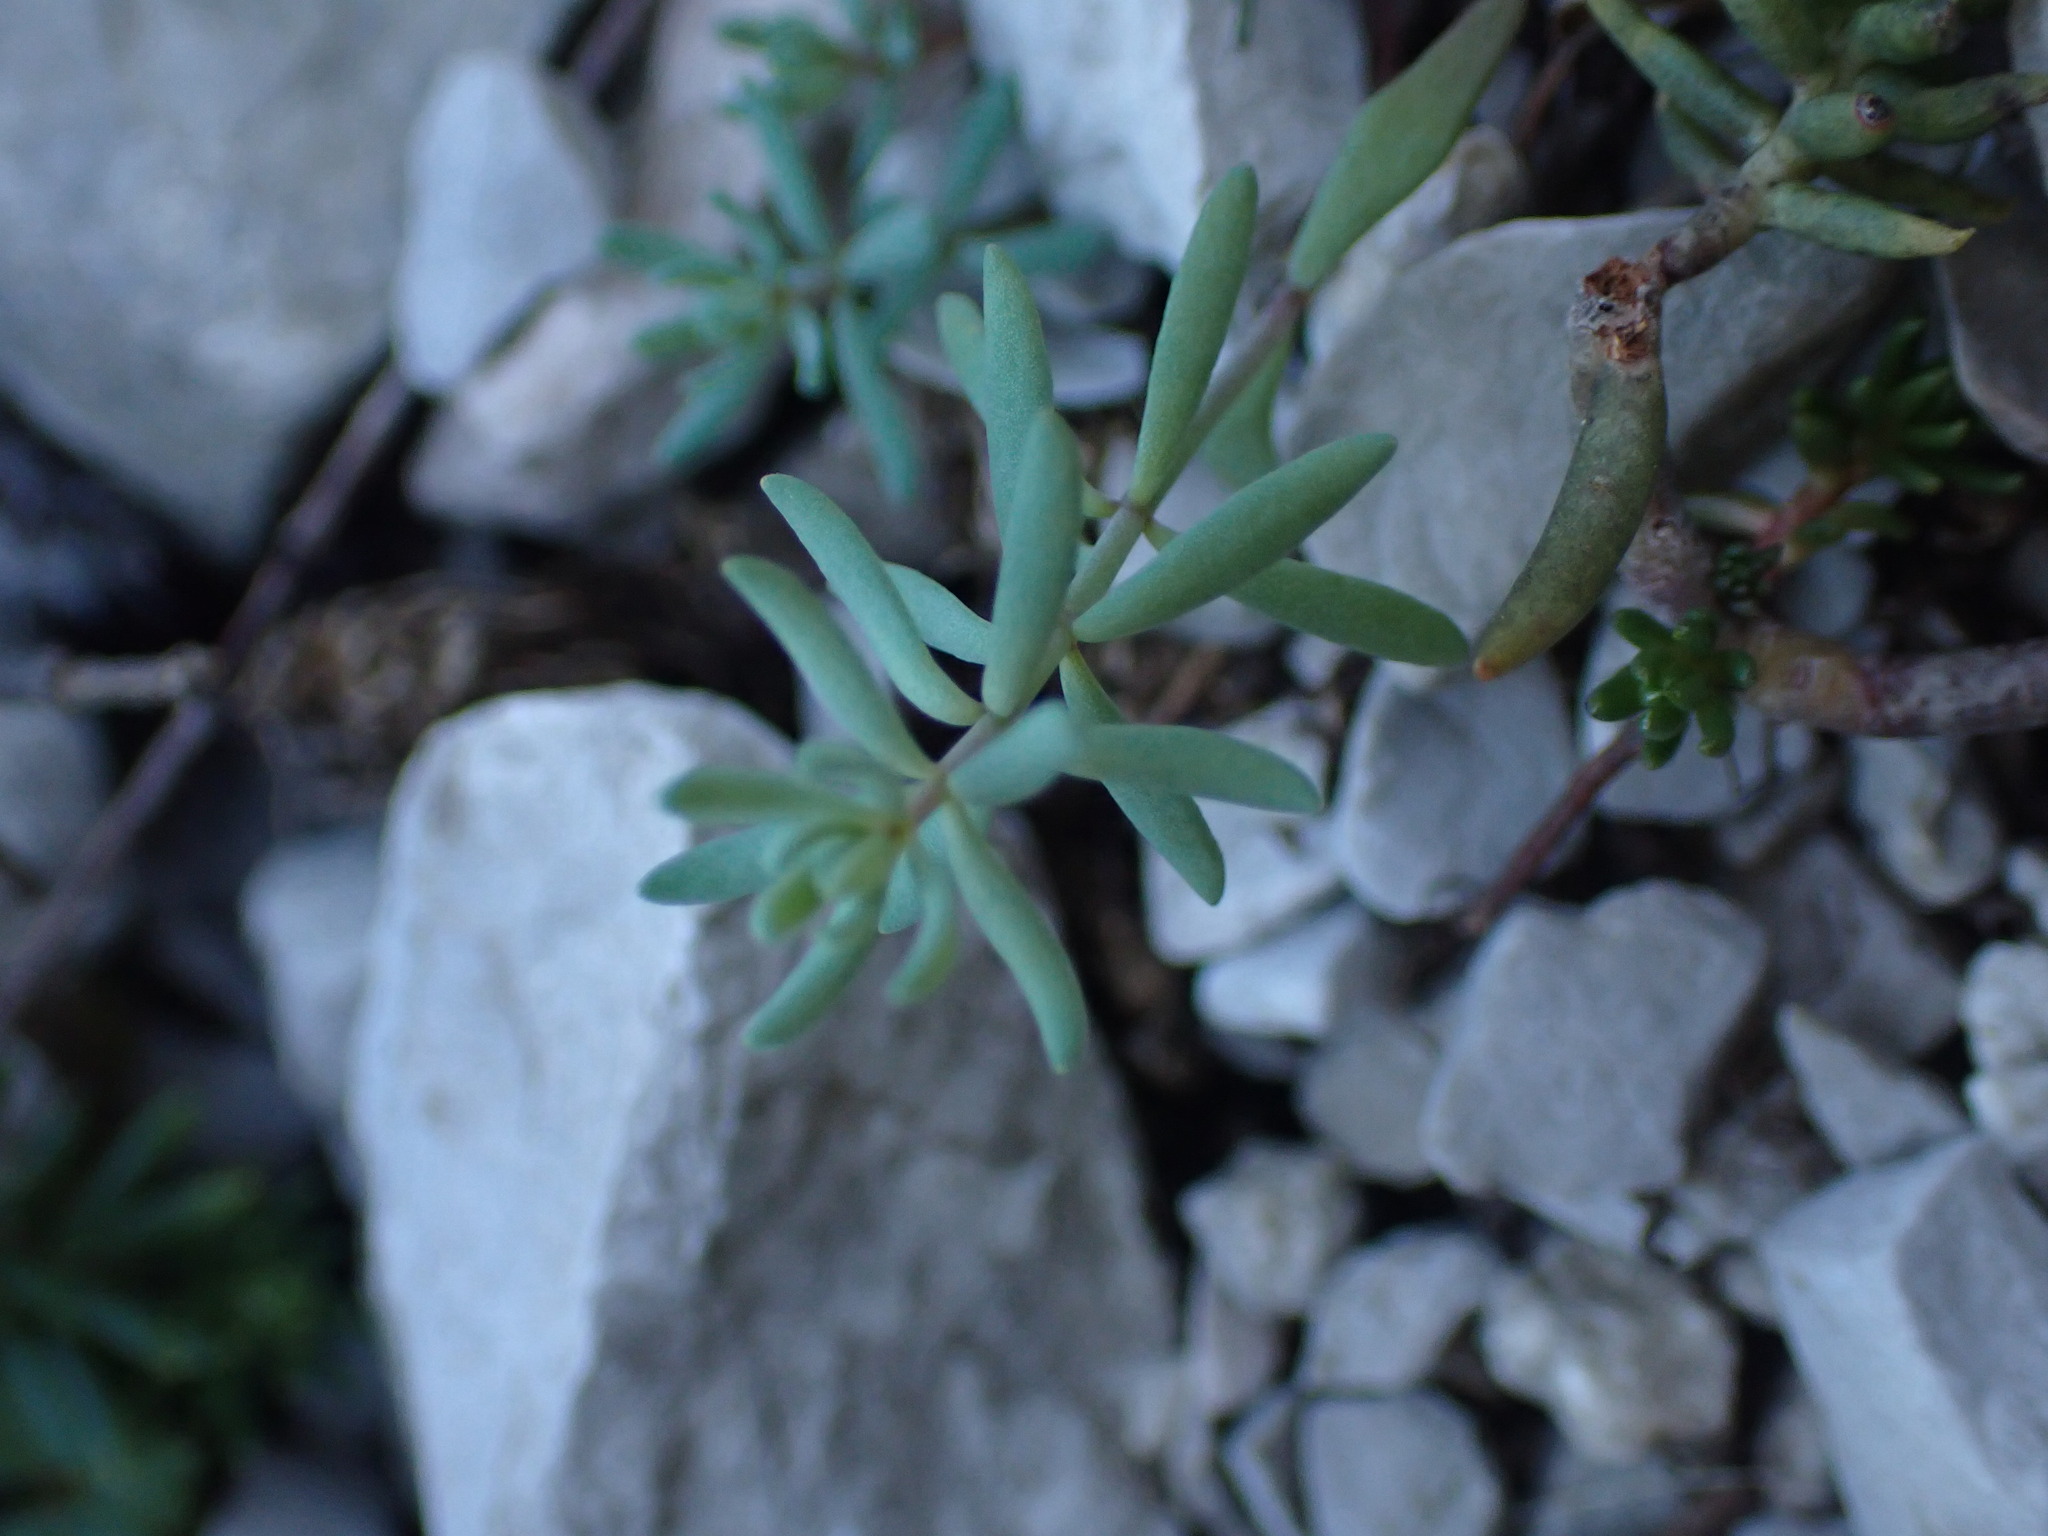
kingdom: Plantae
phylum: Tracheophyta
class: Magnoliopsida
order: Lamiales
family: Plantaginaceae
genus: Linaria
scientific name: Linaria supina
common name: Prostrate toadflax
